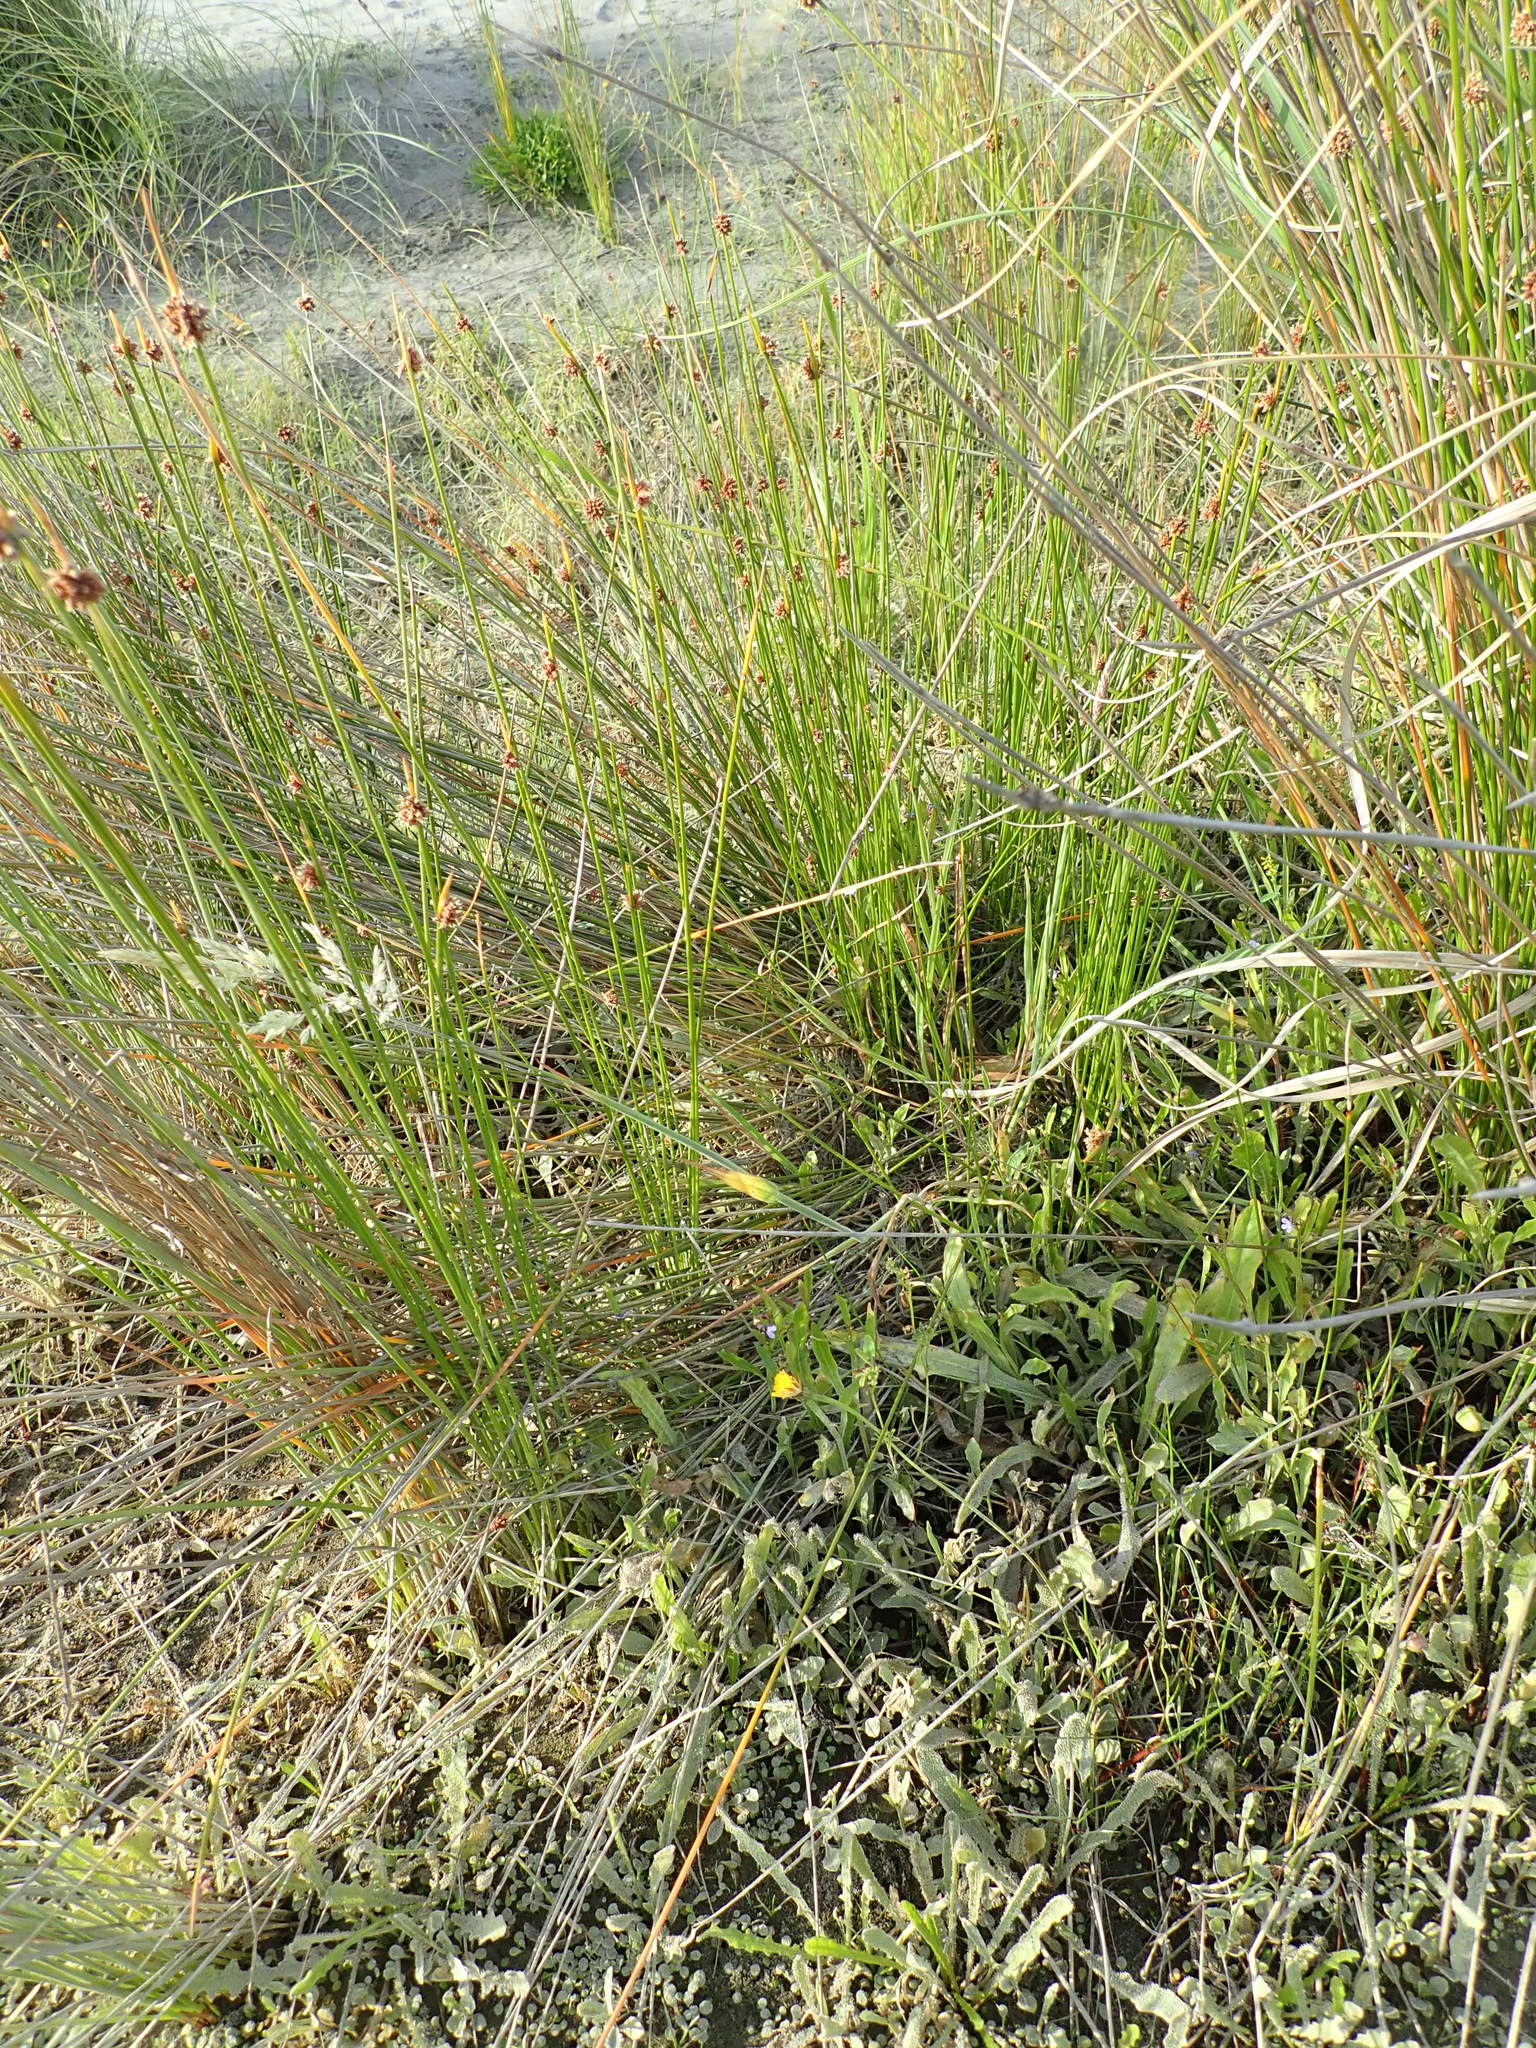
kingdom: Plantae
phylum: Tracheophyta
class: Magnoliopsida
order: Asterales
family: Campanulaceae
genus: Lobelia
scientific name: Lobelia anceps
